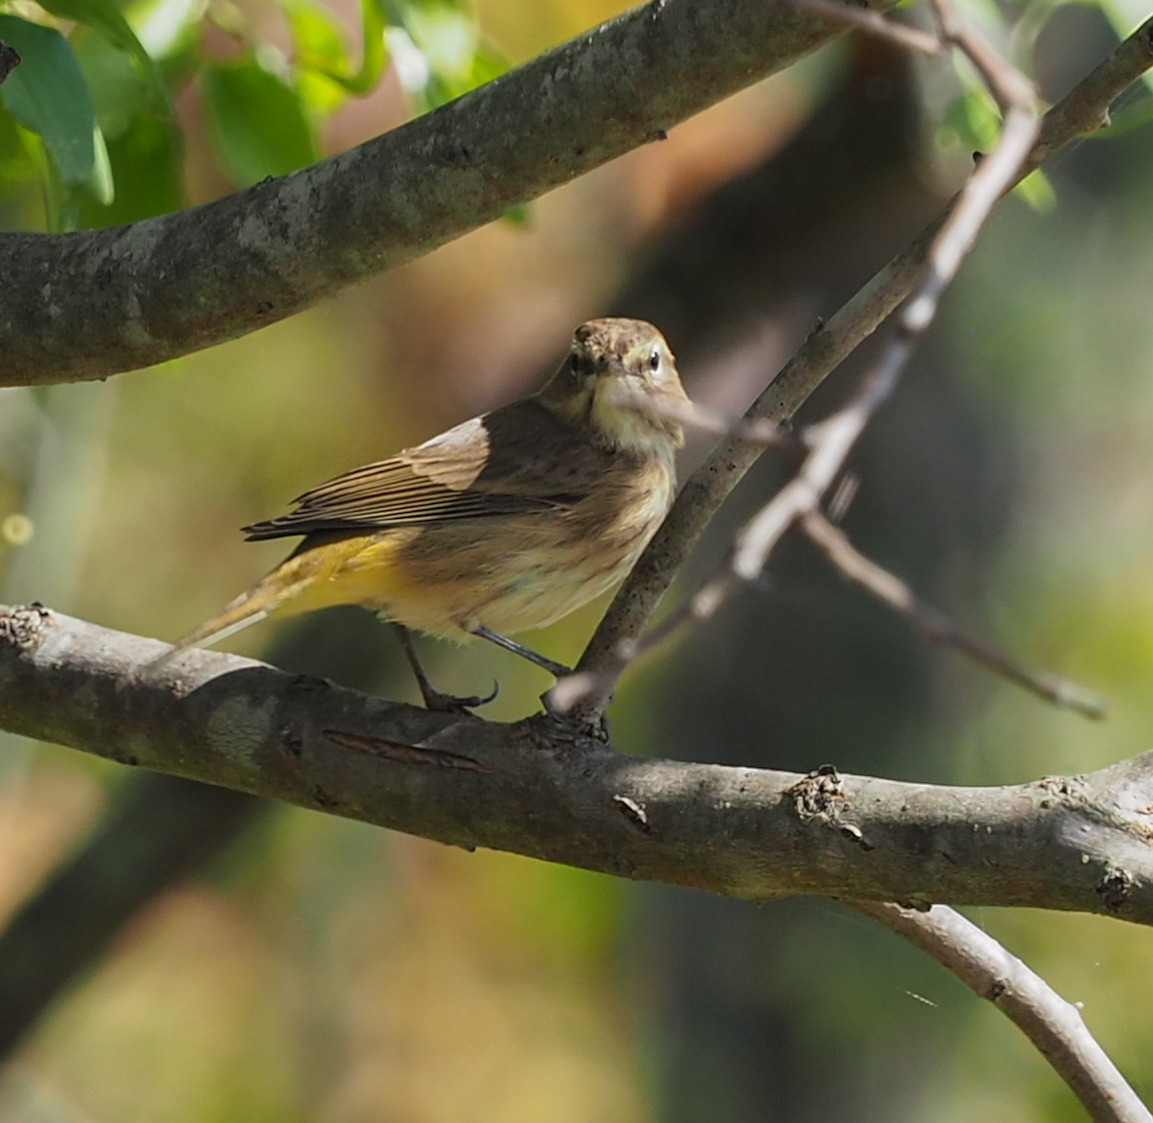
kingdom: Animalia
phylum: Chordata
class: Aves
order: Passeriformes
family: Parulidae
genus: Setophaga
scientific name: Setophaga palmarum
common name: Palm warbler
